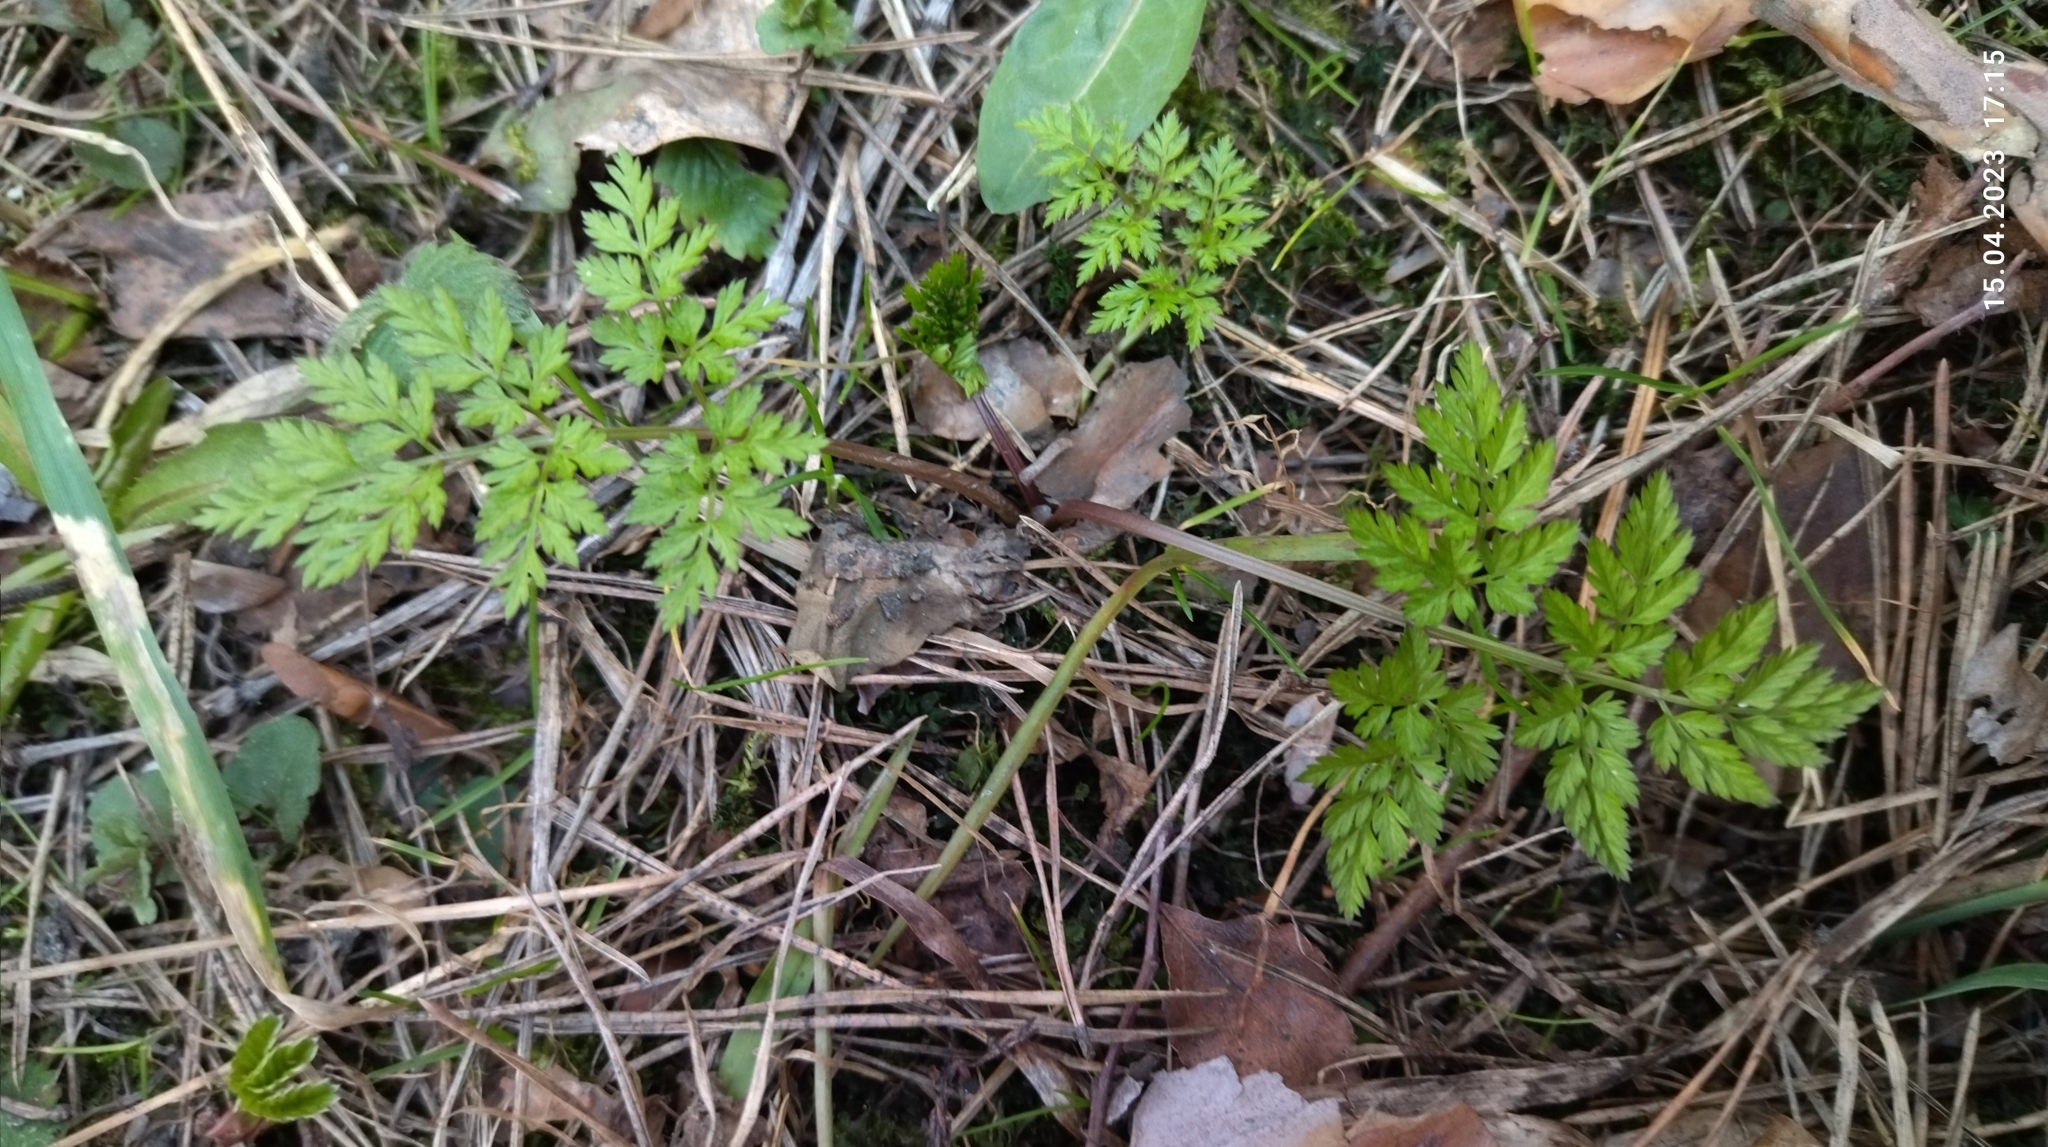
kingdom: Plantae
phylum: Tracheophyta
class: Magnoliopsida
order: Apiales
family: Apiaceae
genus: Anthriscus
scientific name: Anthriscus sylvestris
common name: Cow parsley
